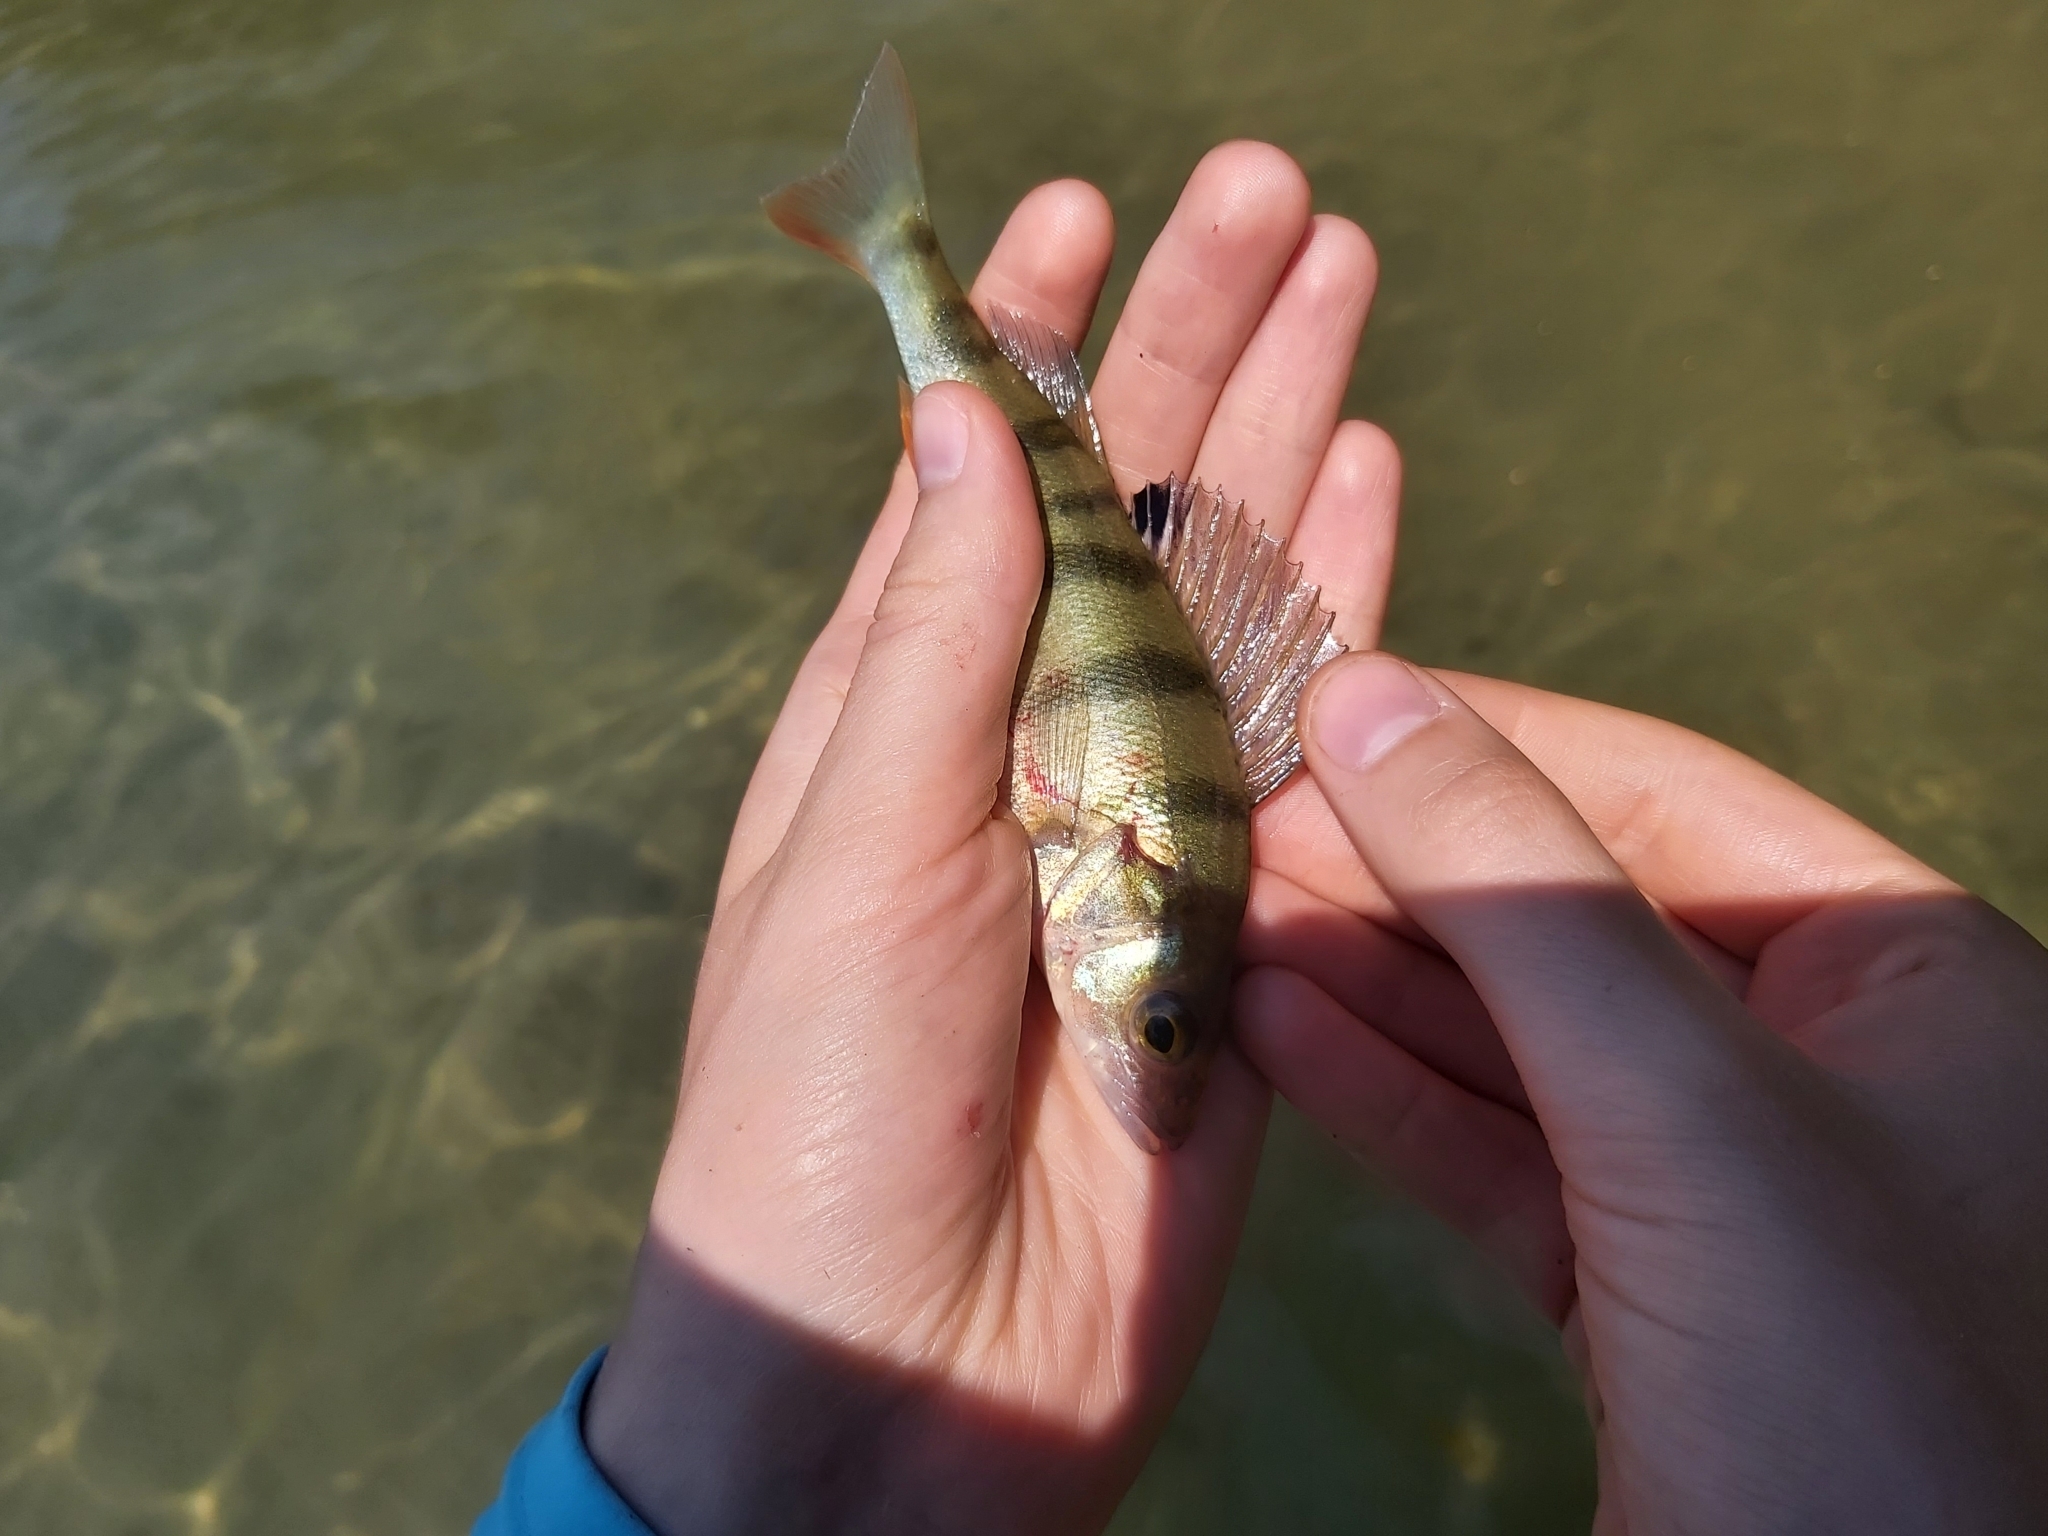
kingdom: Animalia
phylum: Chordata
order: Perciformes
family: Percidae
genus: Perca
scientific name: Perca fluviatilis
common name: Perch
